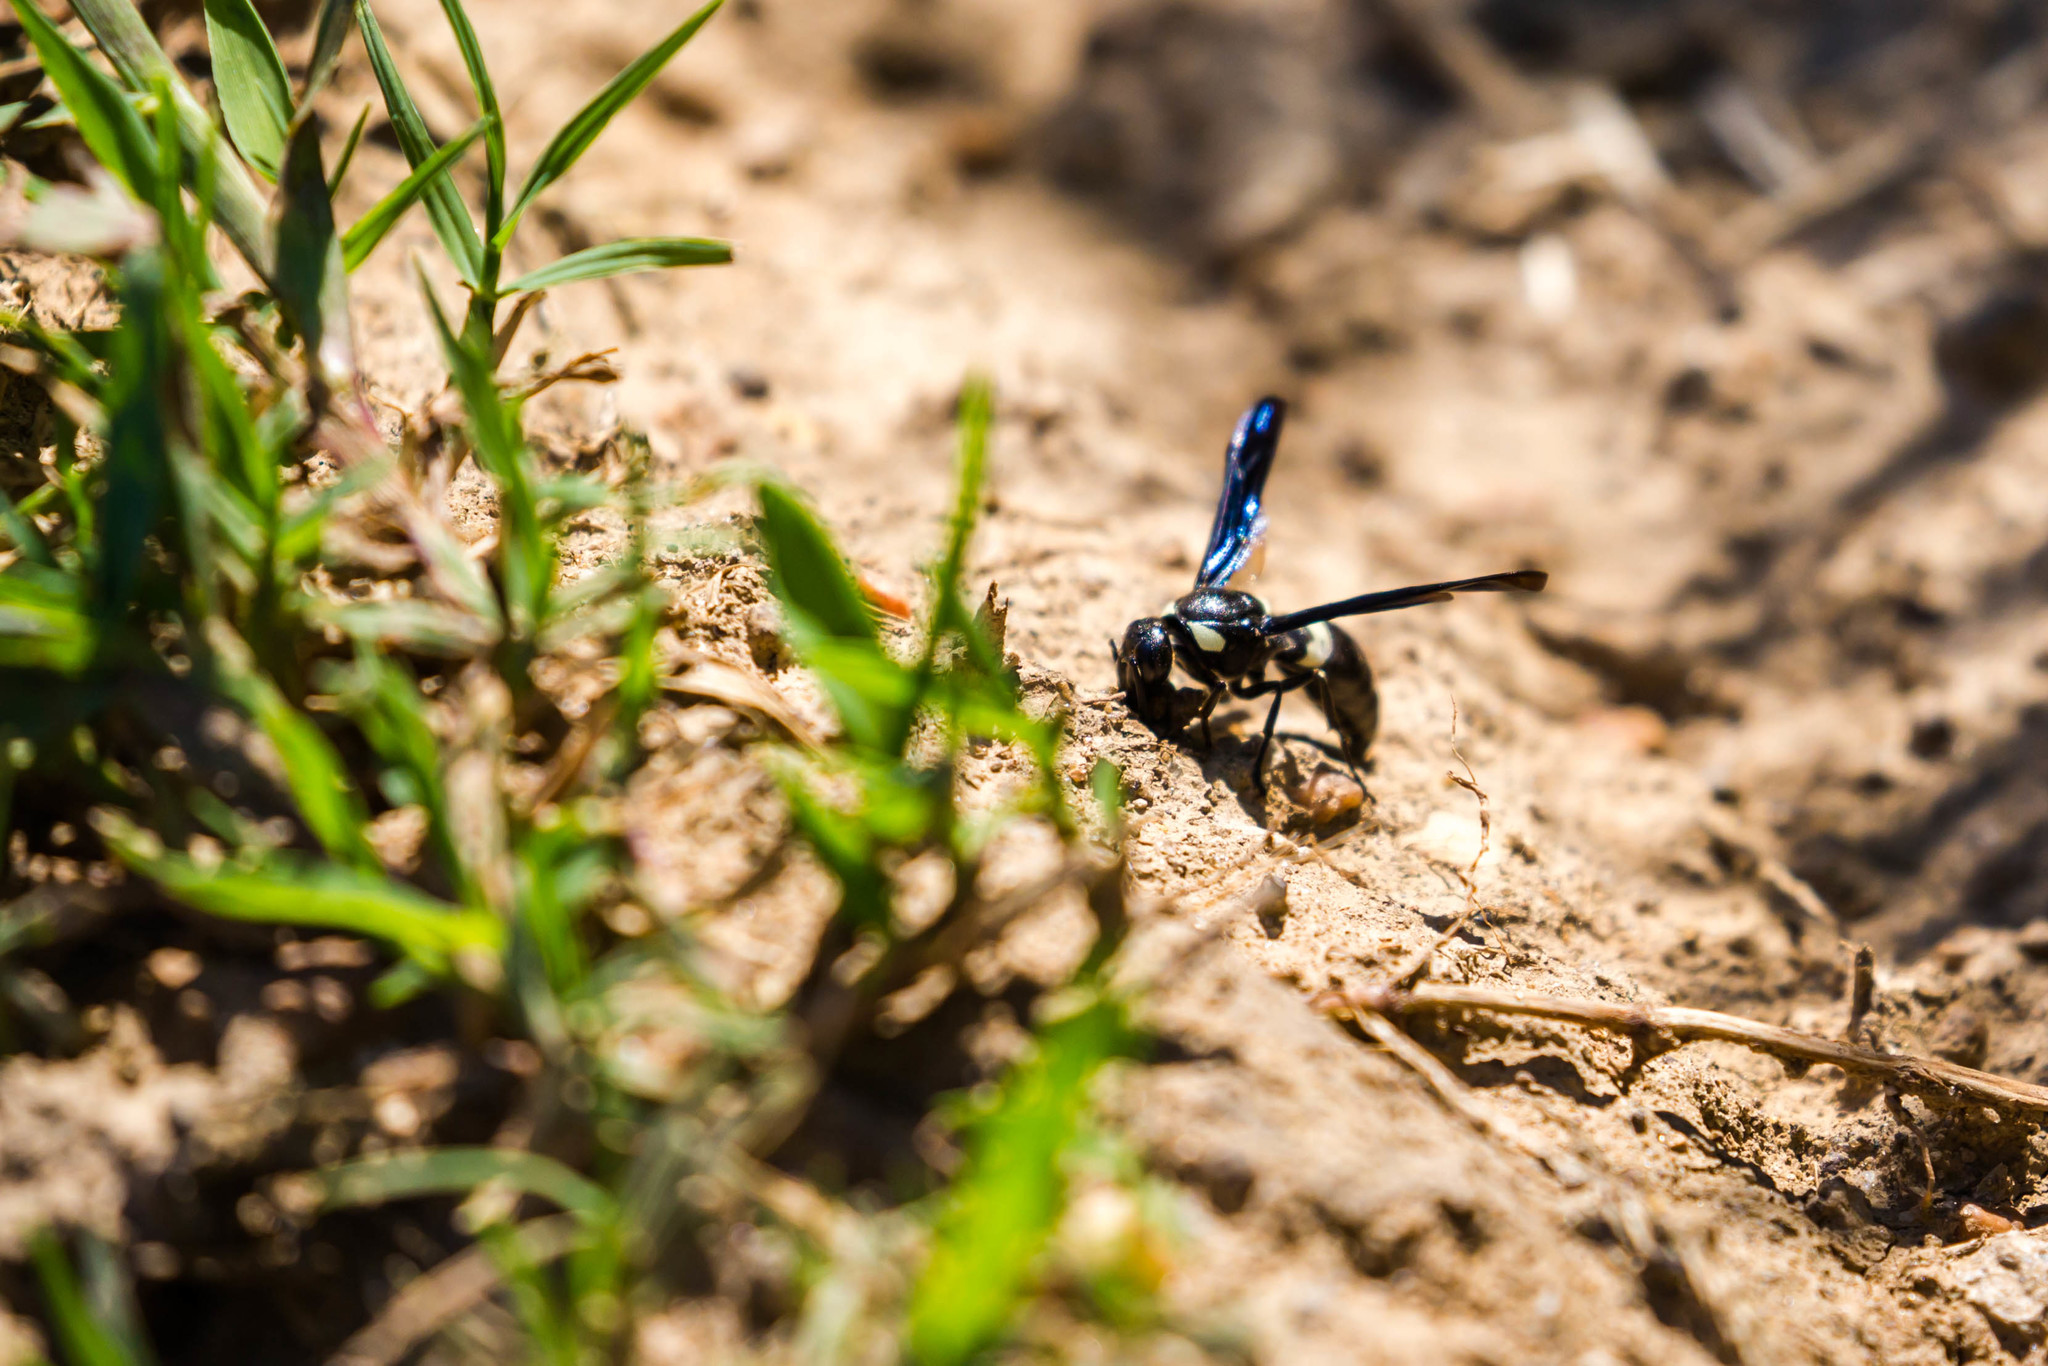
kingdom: Animalia
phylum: Arthropoda
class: Insecta
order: Hymenoptera
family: Eumenidae
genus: Monobia
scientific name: Monobia quadridens
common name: Four-toothed mason wasp
